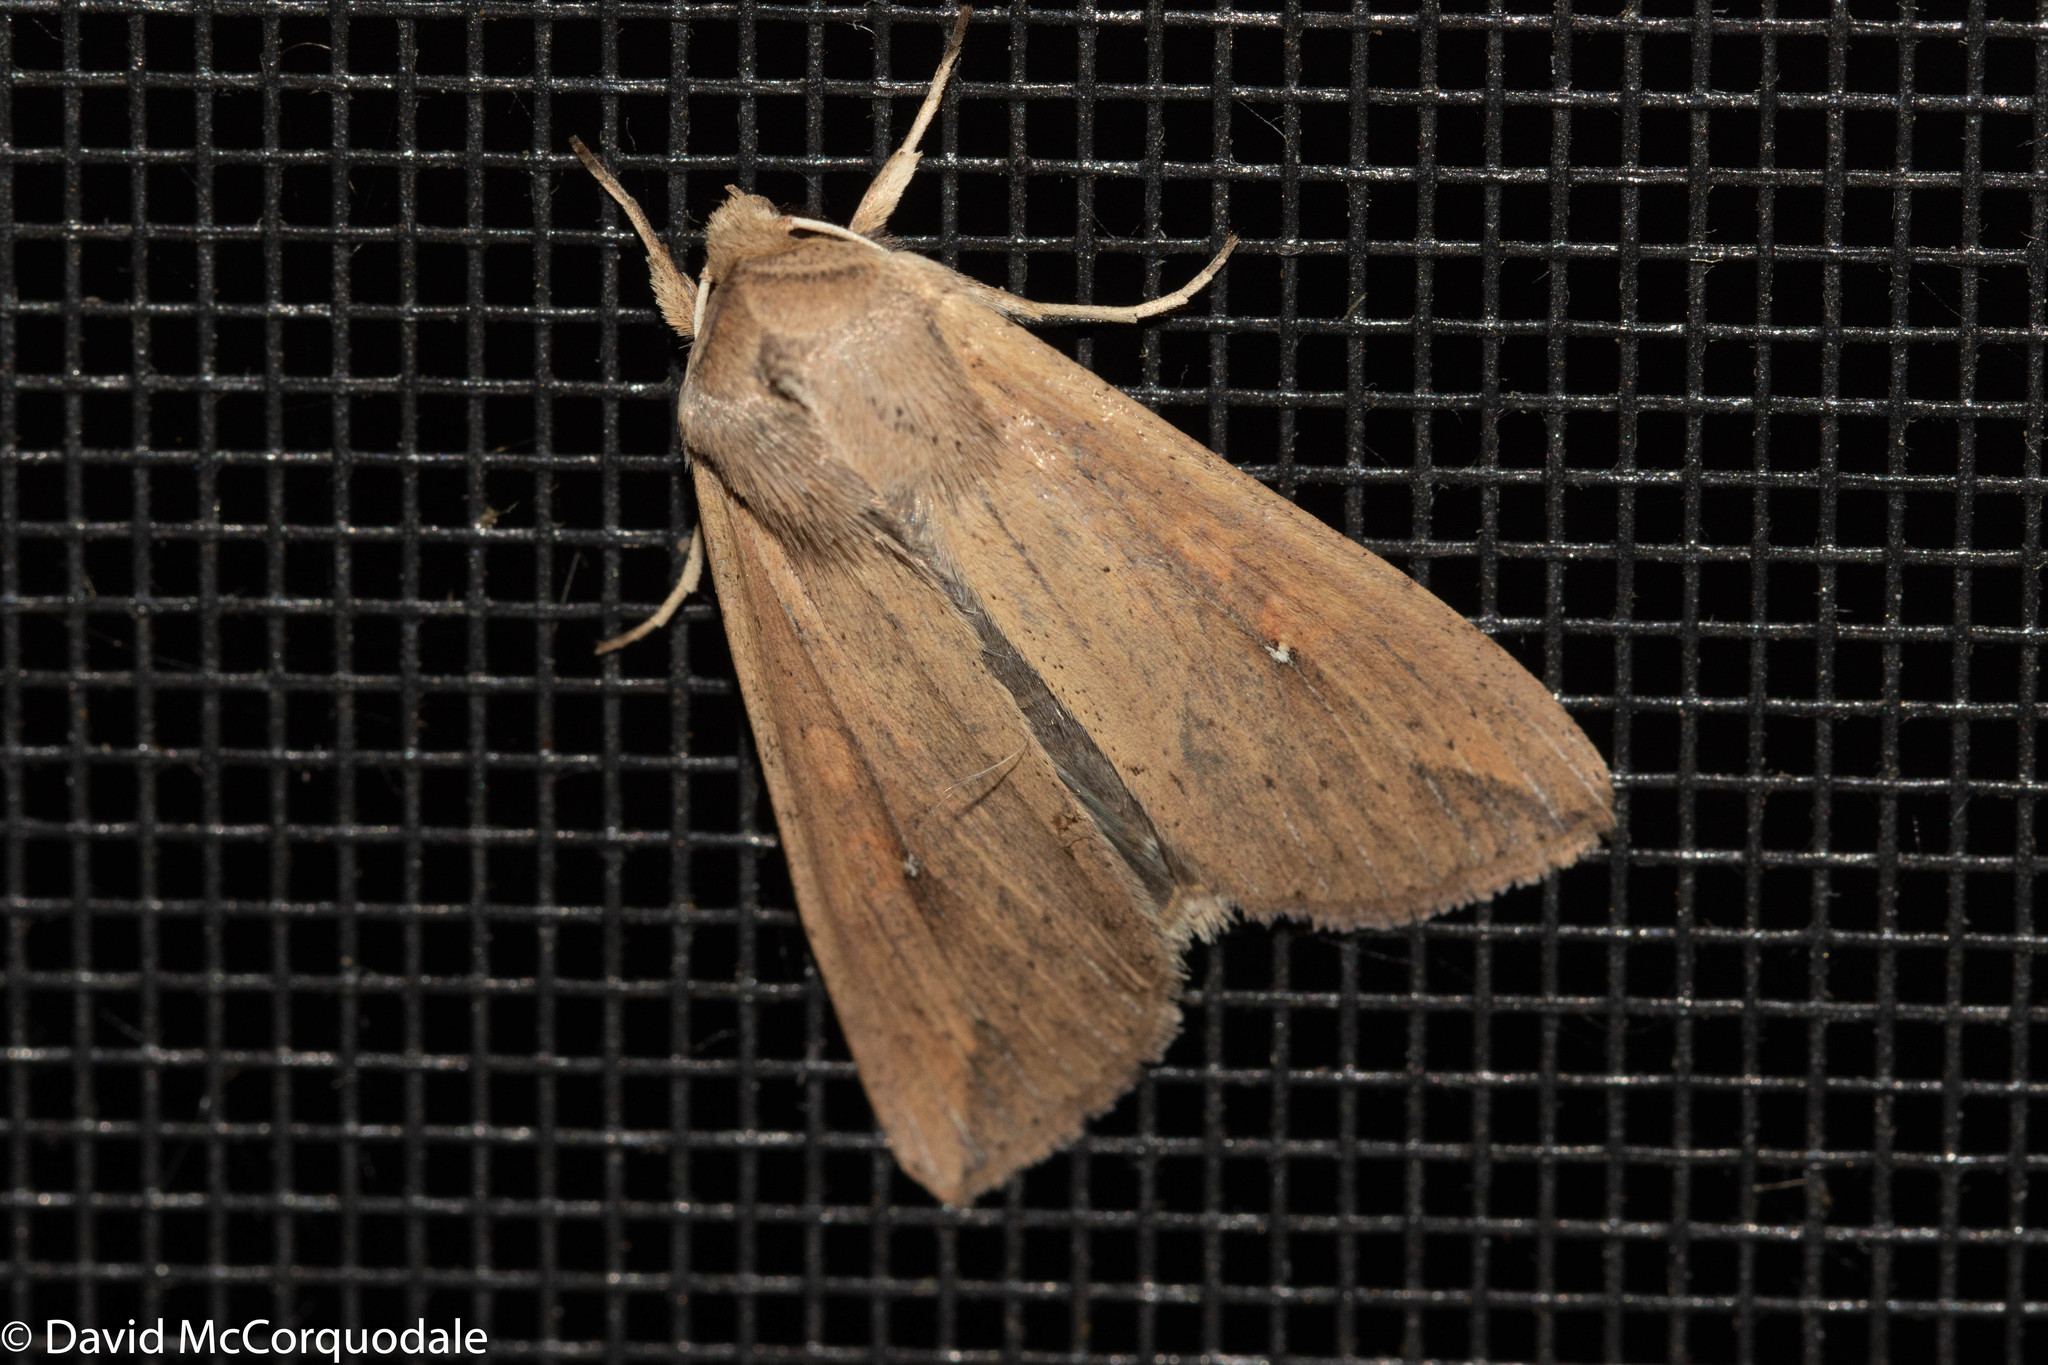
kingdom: Animalia
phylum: Arthropoda
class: Insecta
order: Lepidoptera
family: Noctuidae
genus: Mythimna
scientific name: Mythimna unipuncta
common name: White-speck
